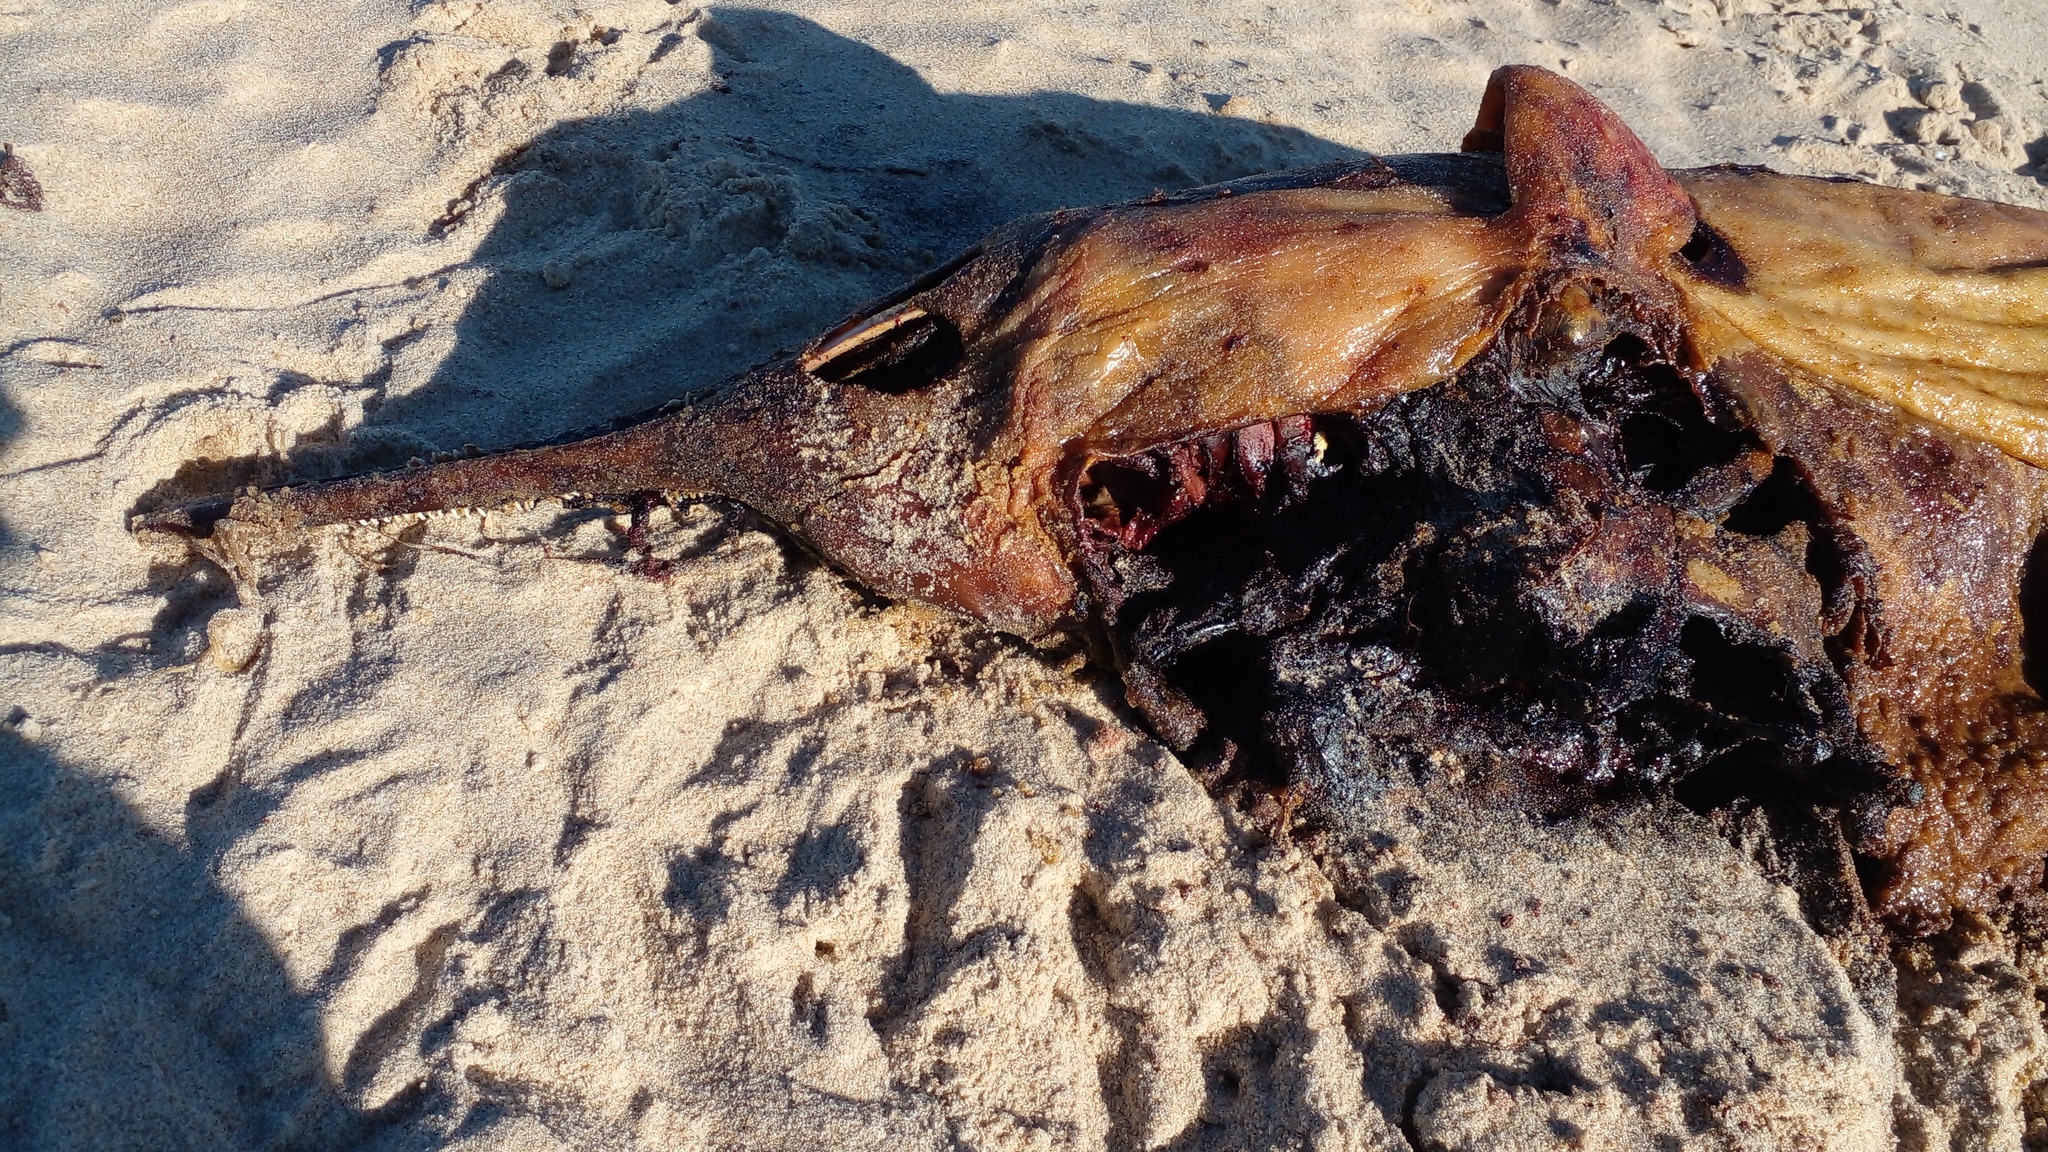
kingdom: Animalia
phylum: Chordata
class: Mammalia
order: Cetacea
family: Pontoporiidae
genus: Pontoporia
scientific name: Pontoporia blainvillei
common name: Franciscana
